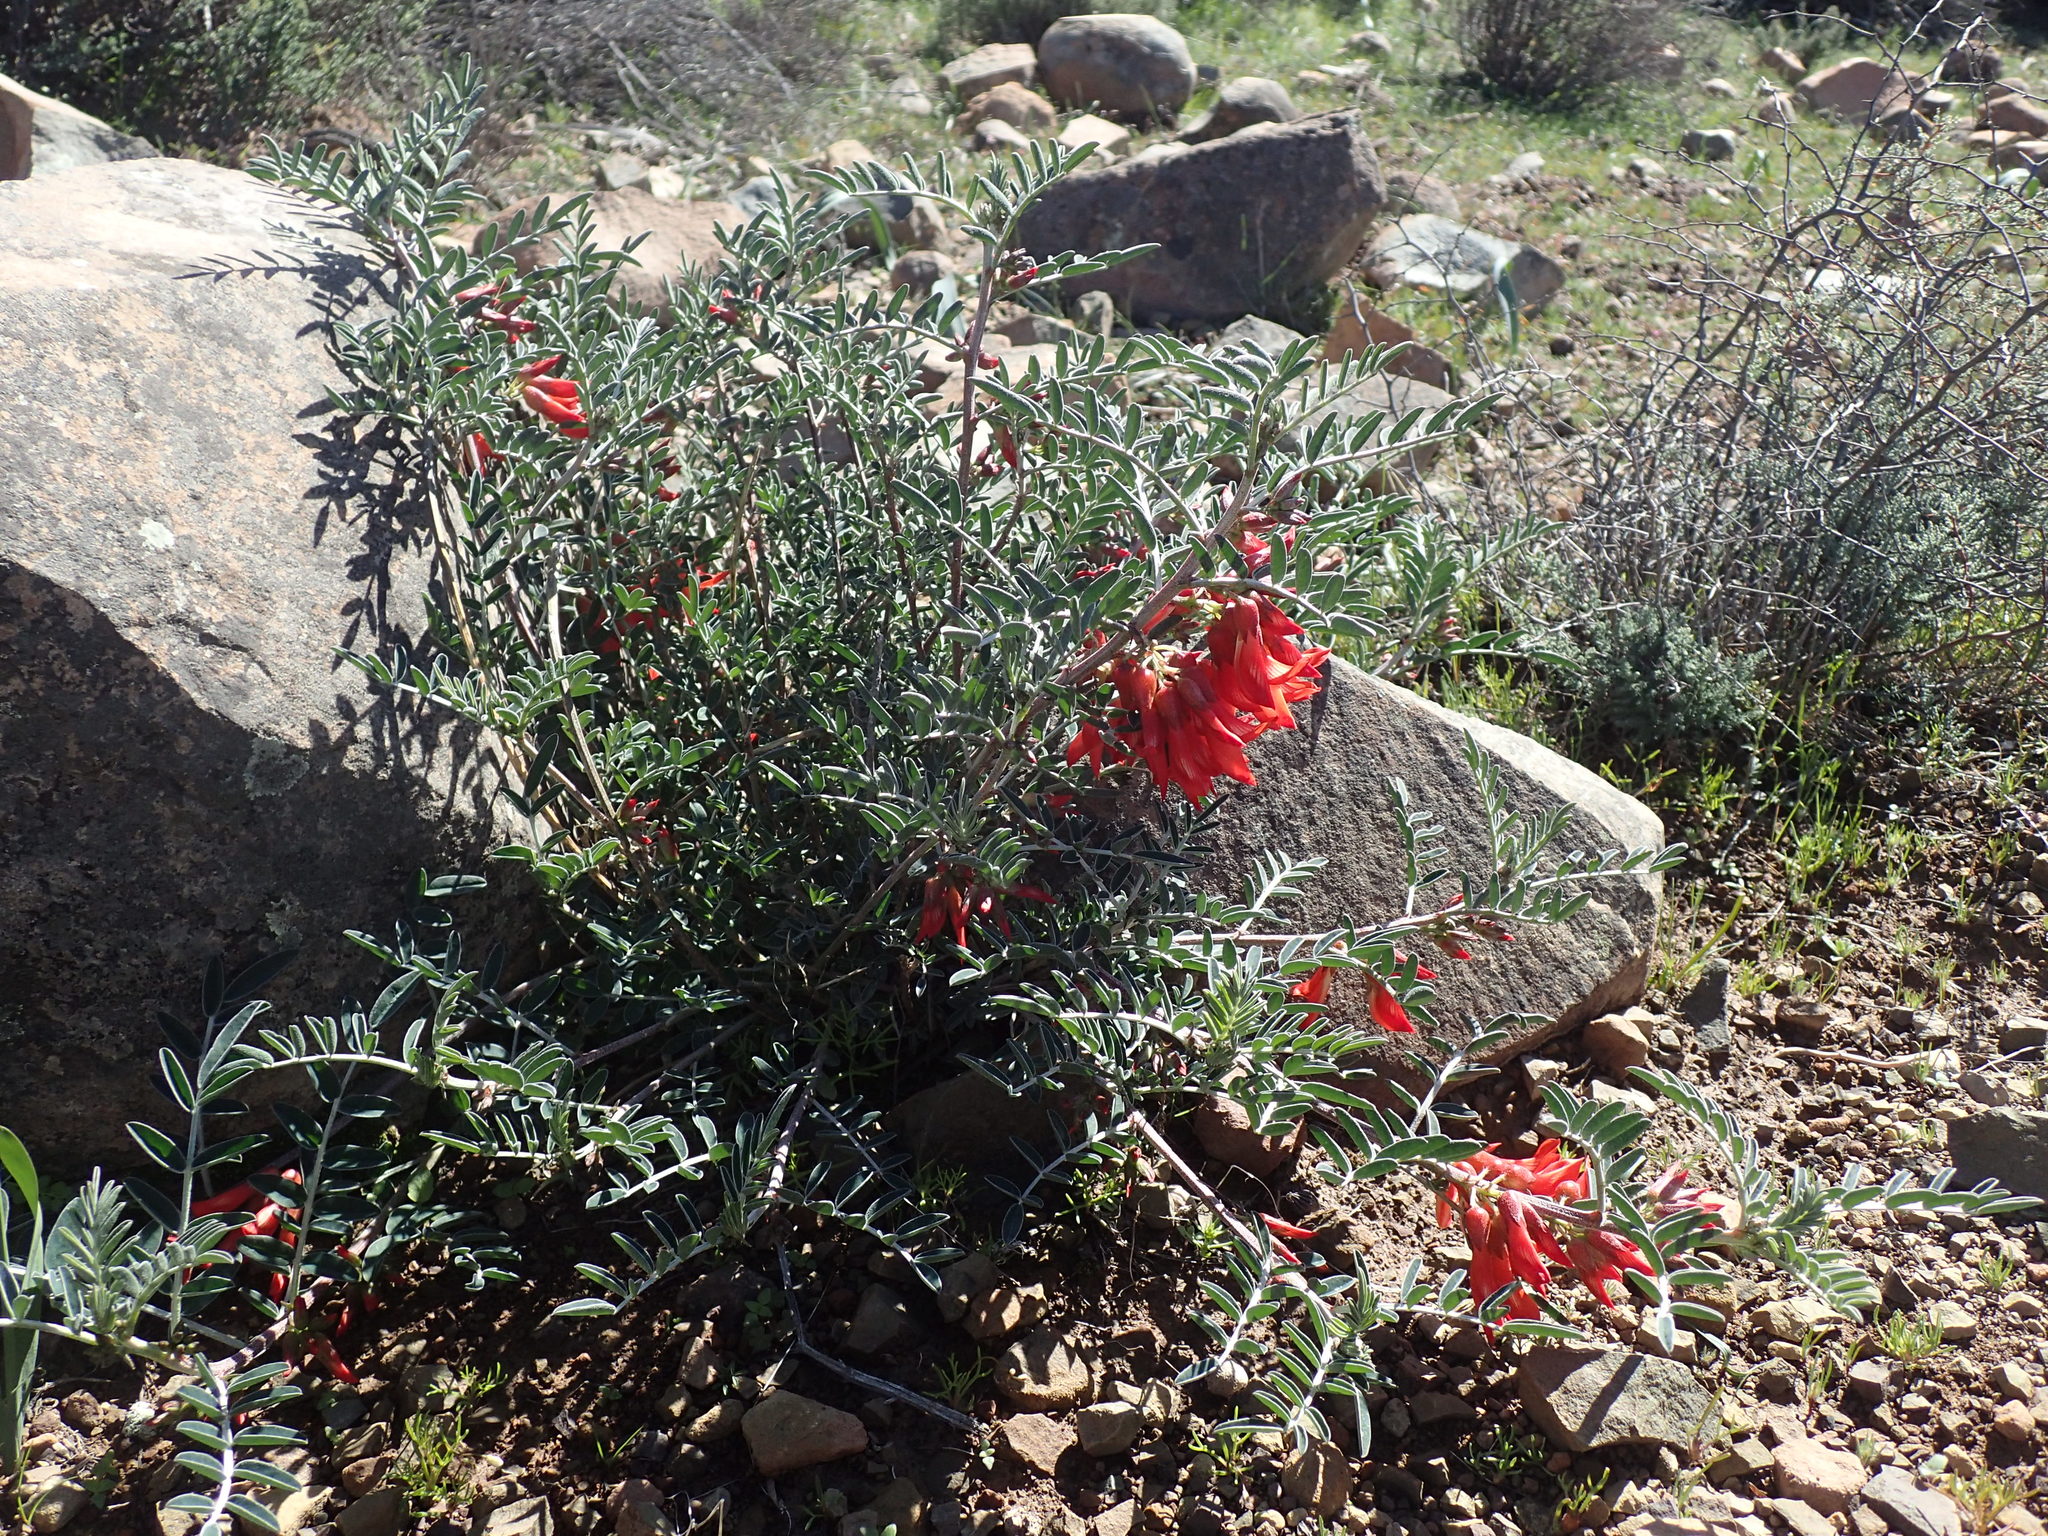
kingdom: Plantae
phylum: Tracheophyta
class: Magnoliopsida
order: Fabales
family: Fabaceae
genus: Lessertia
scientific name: Lessertia frutescens
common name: Balloon-pea
